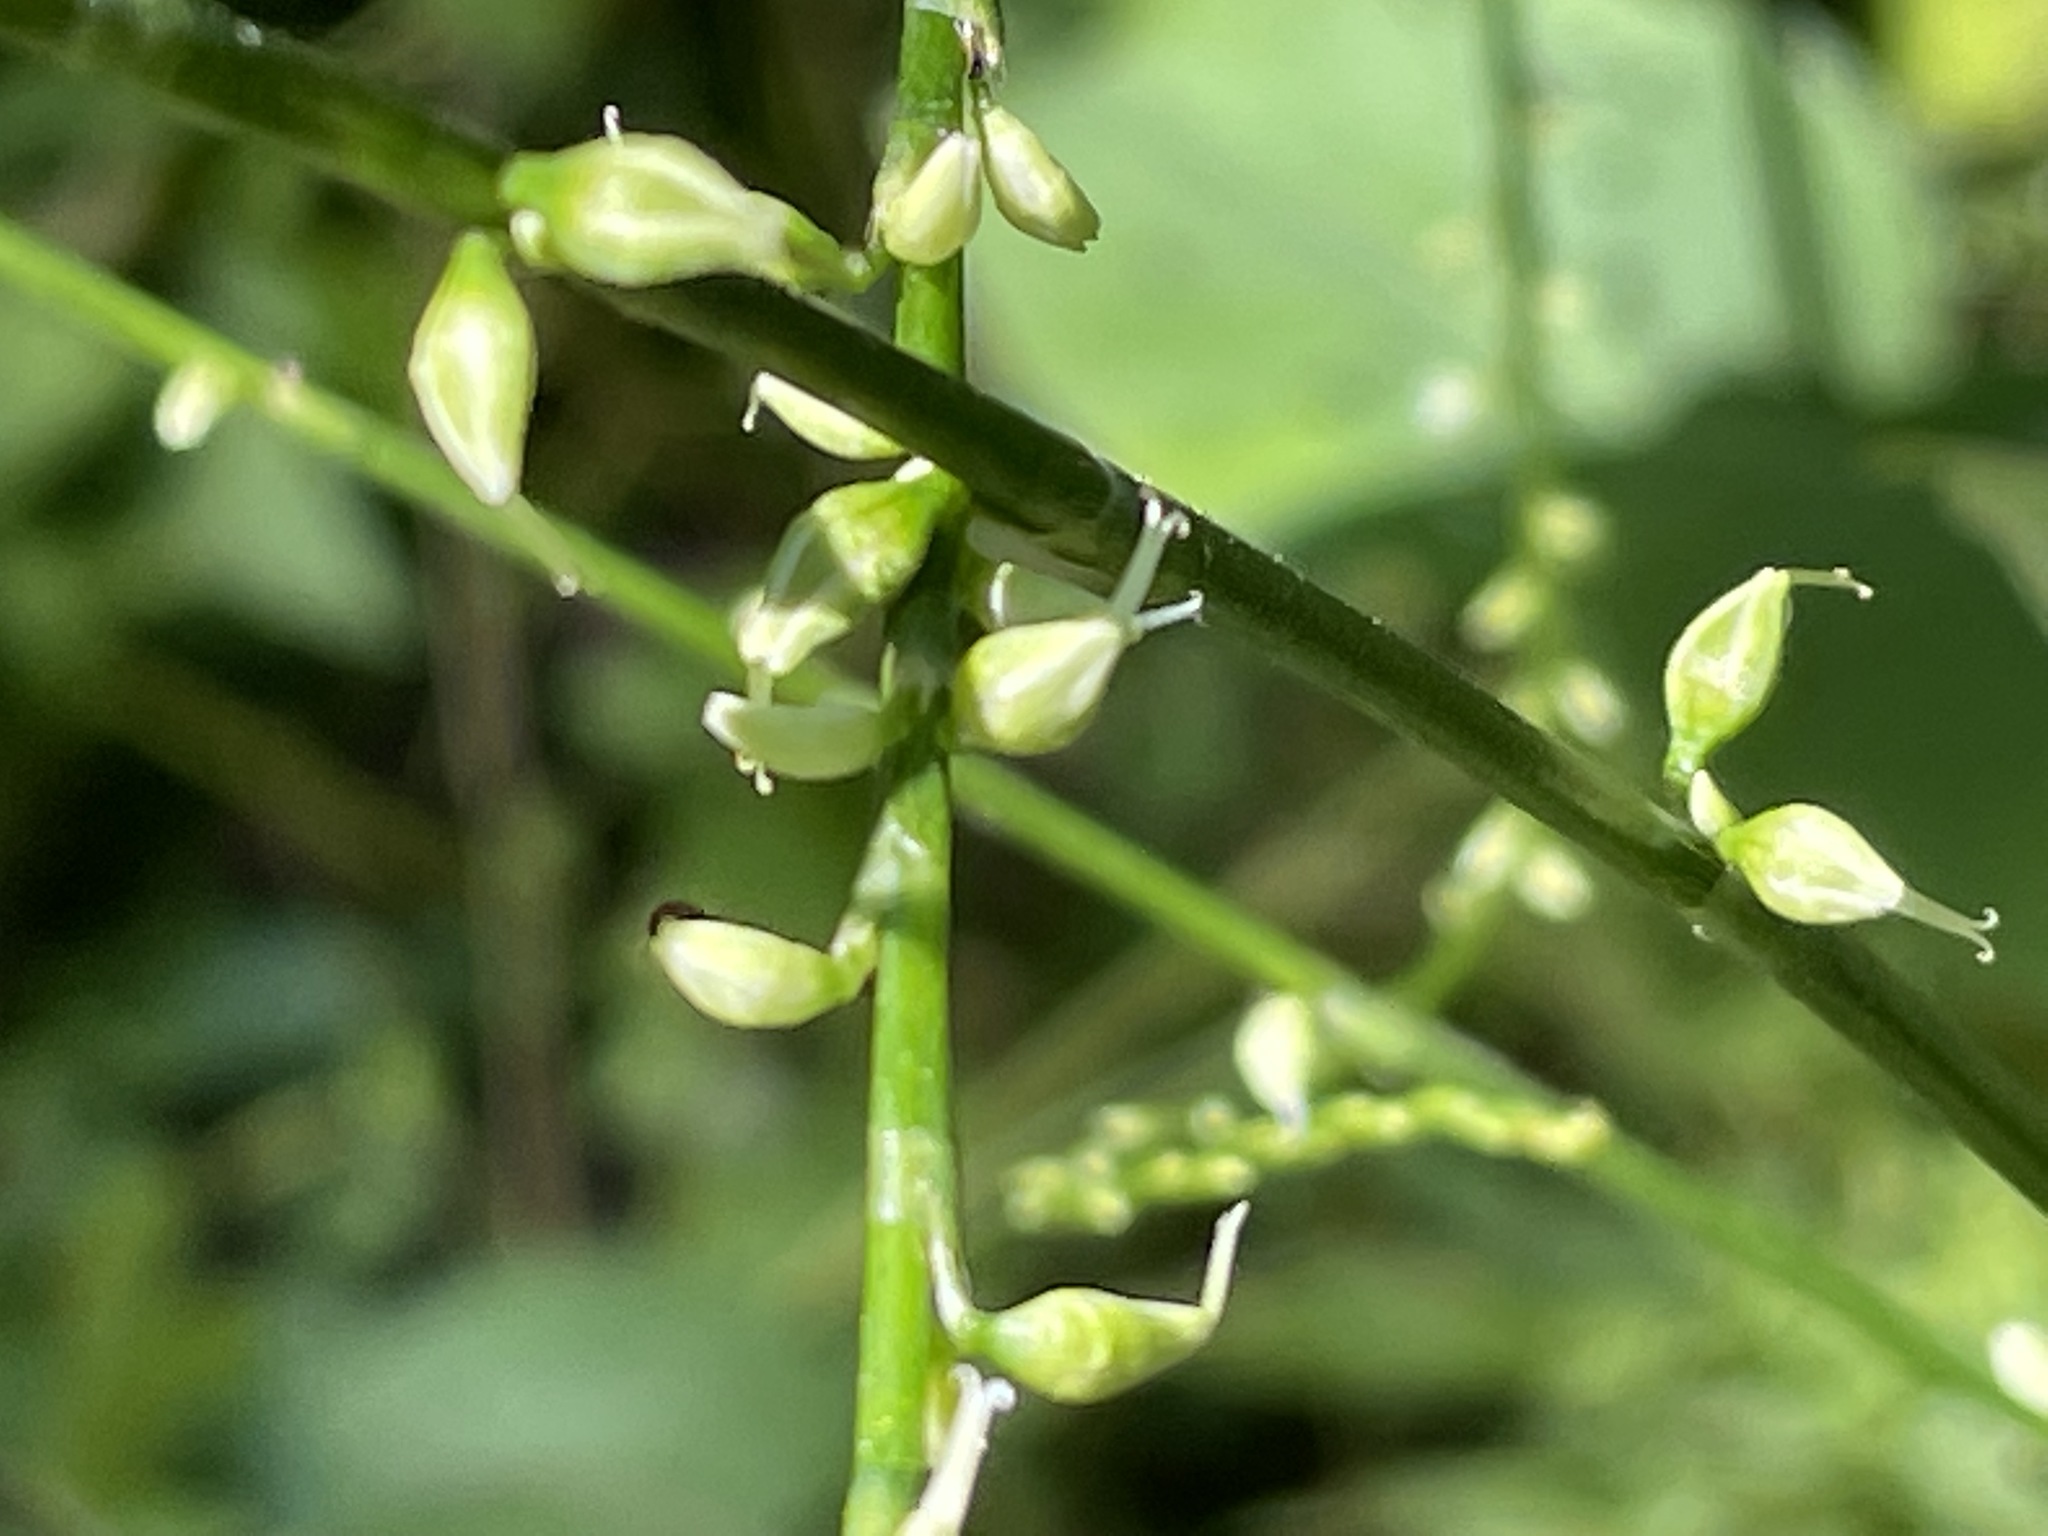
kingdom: Plantae
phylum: Tracheophyta
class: Magnoliopsida
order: Caryophyllales
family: Polygonaceae
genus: Persicaria
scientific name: Persicaria virginiana
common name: Jumpseed
